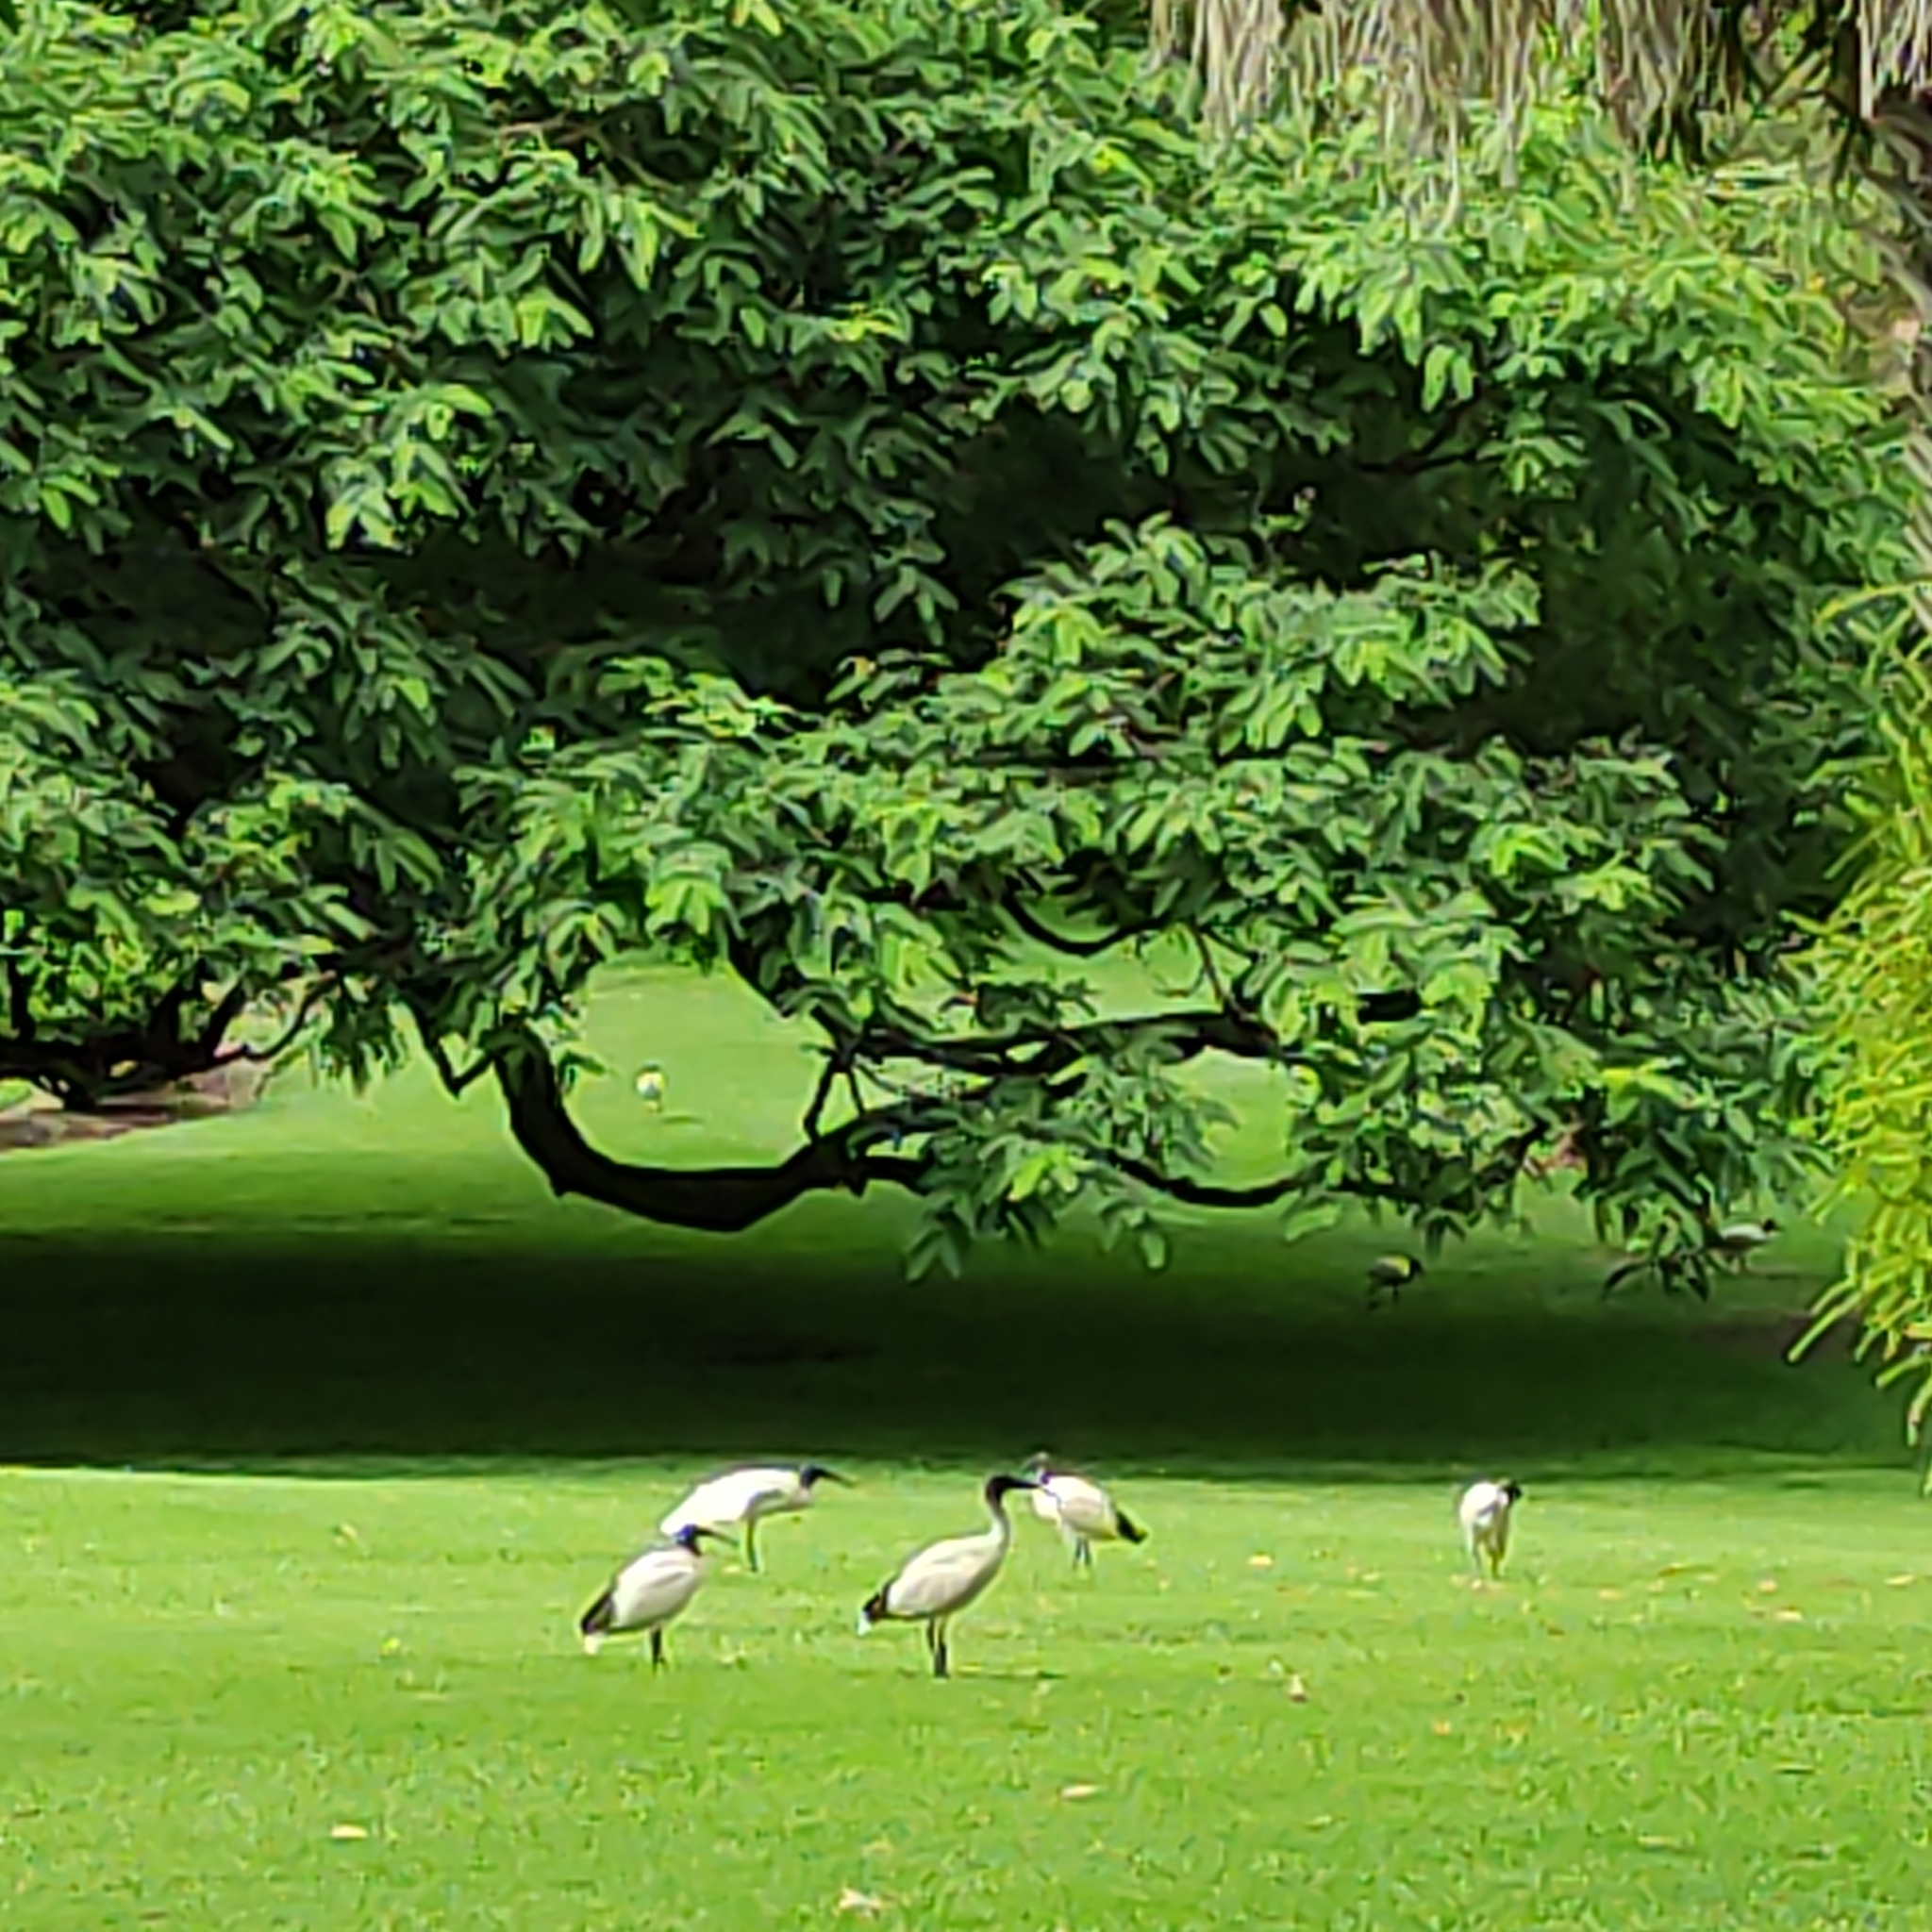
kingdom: Animalia
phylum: Chordata
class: Aves
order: Pelecaniformes
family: Threskiornithidae
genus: Threskiornis
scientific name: Threskiornis molucca
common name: Australian white ibis
